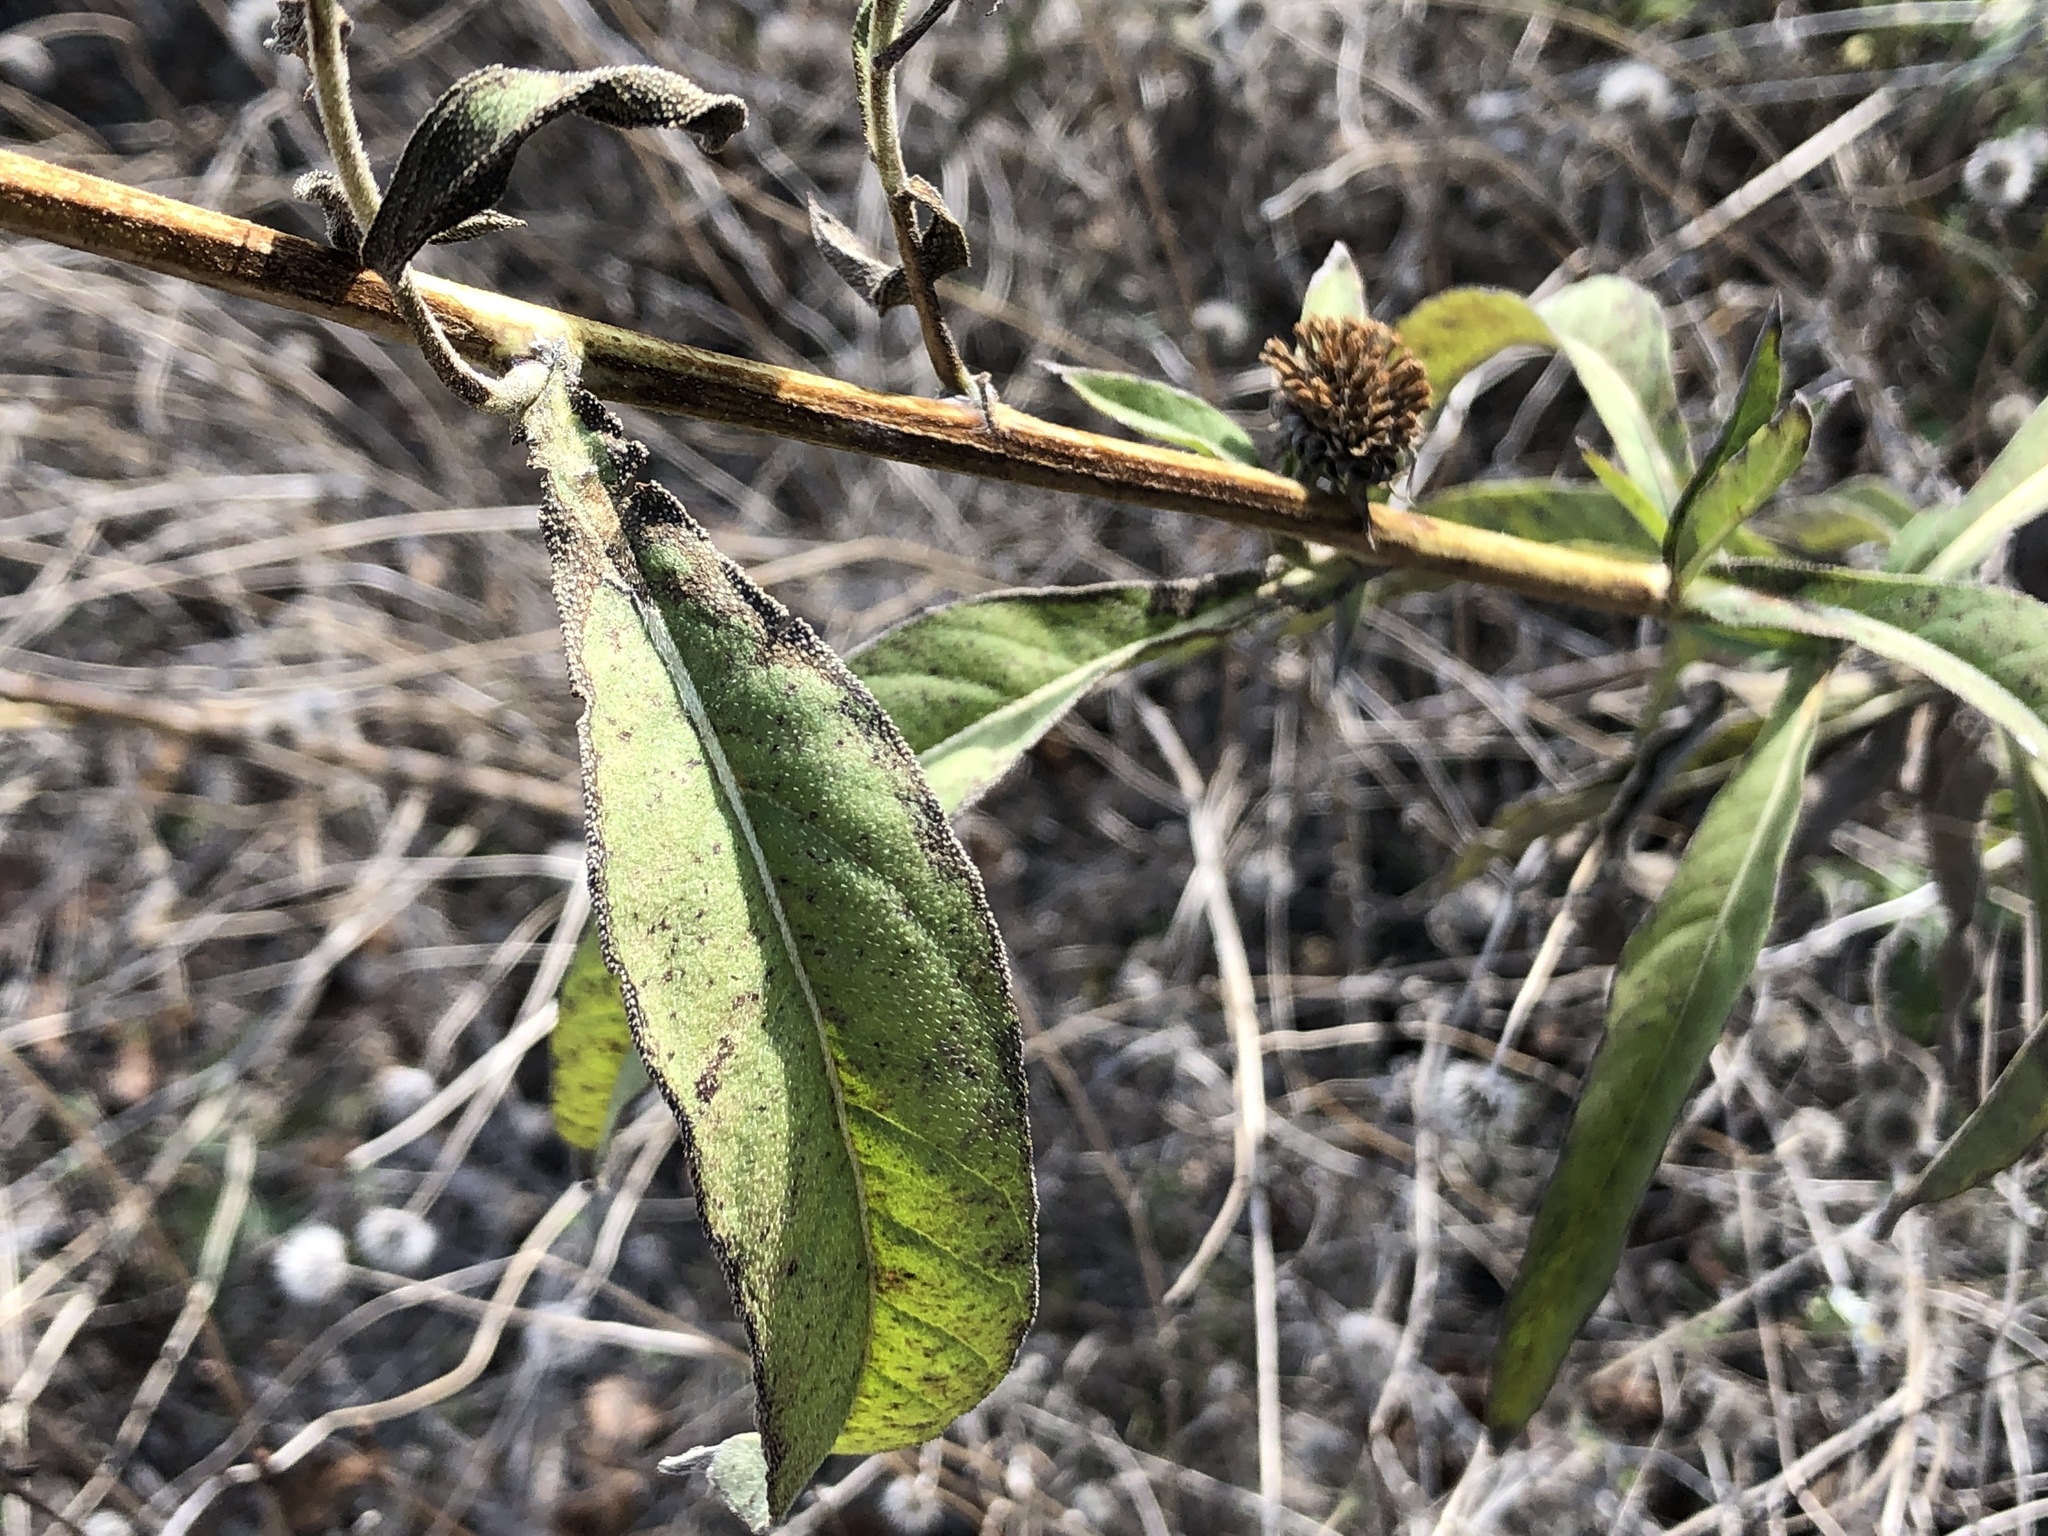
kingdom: Plantae
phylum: Tracheophyta
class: Magnoliopsida
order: Asterales
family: Asteraceae
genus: Helianthus
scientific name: Helianthus maximiliani
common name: Maximilian's sunflower
